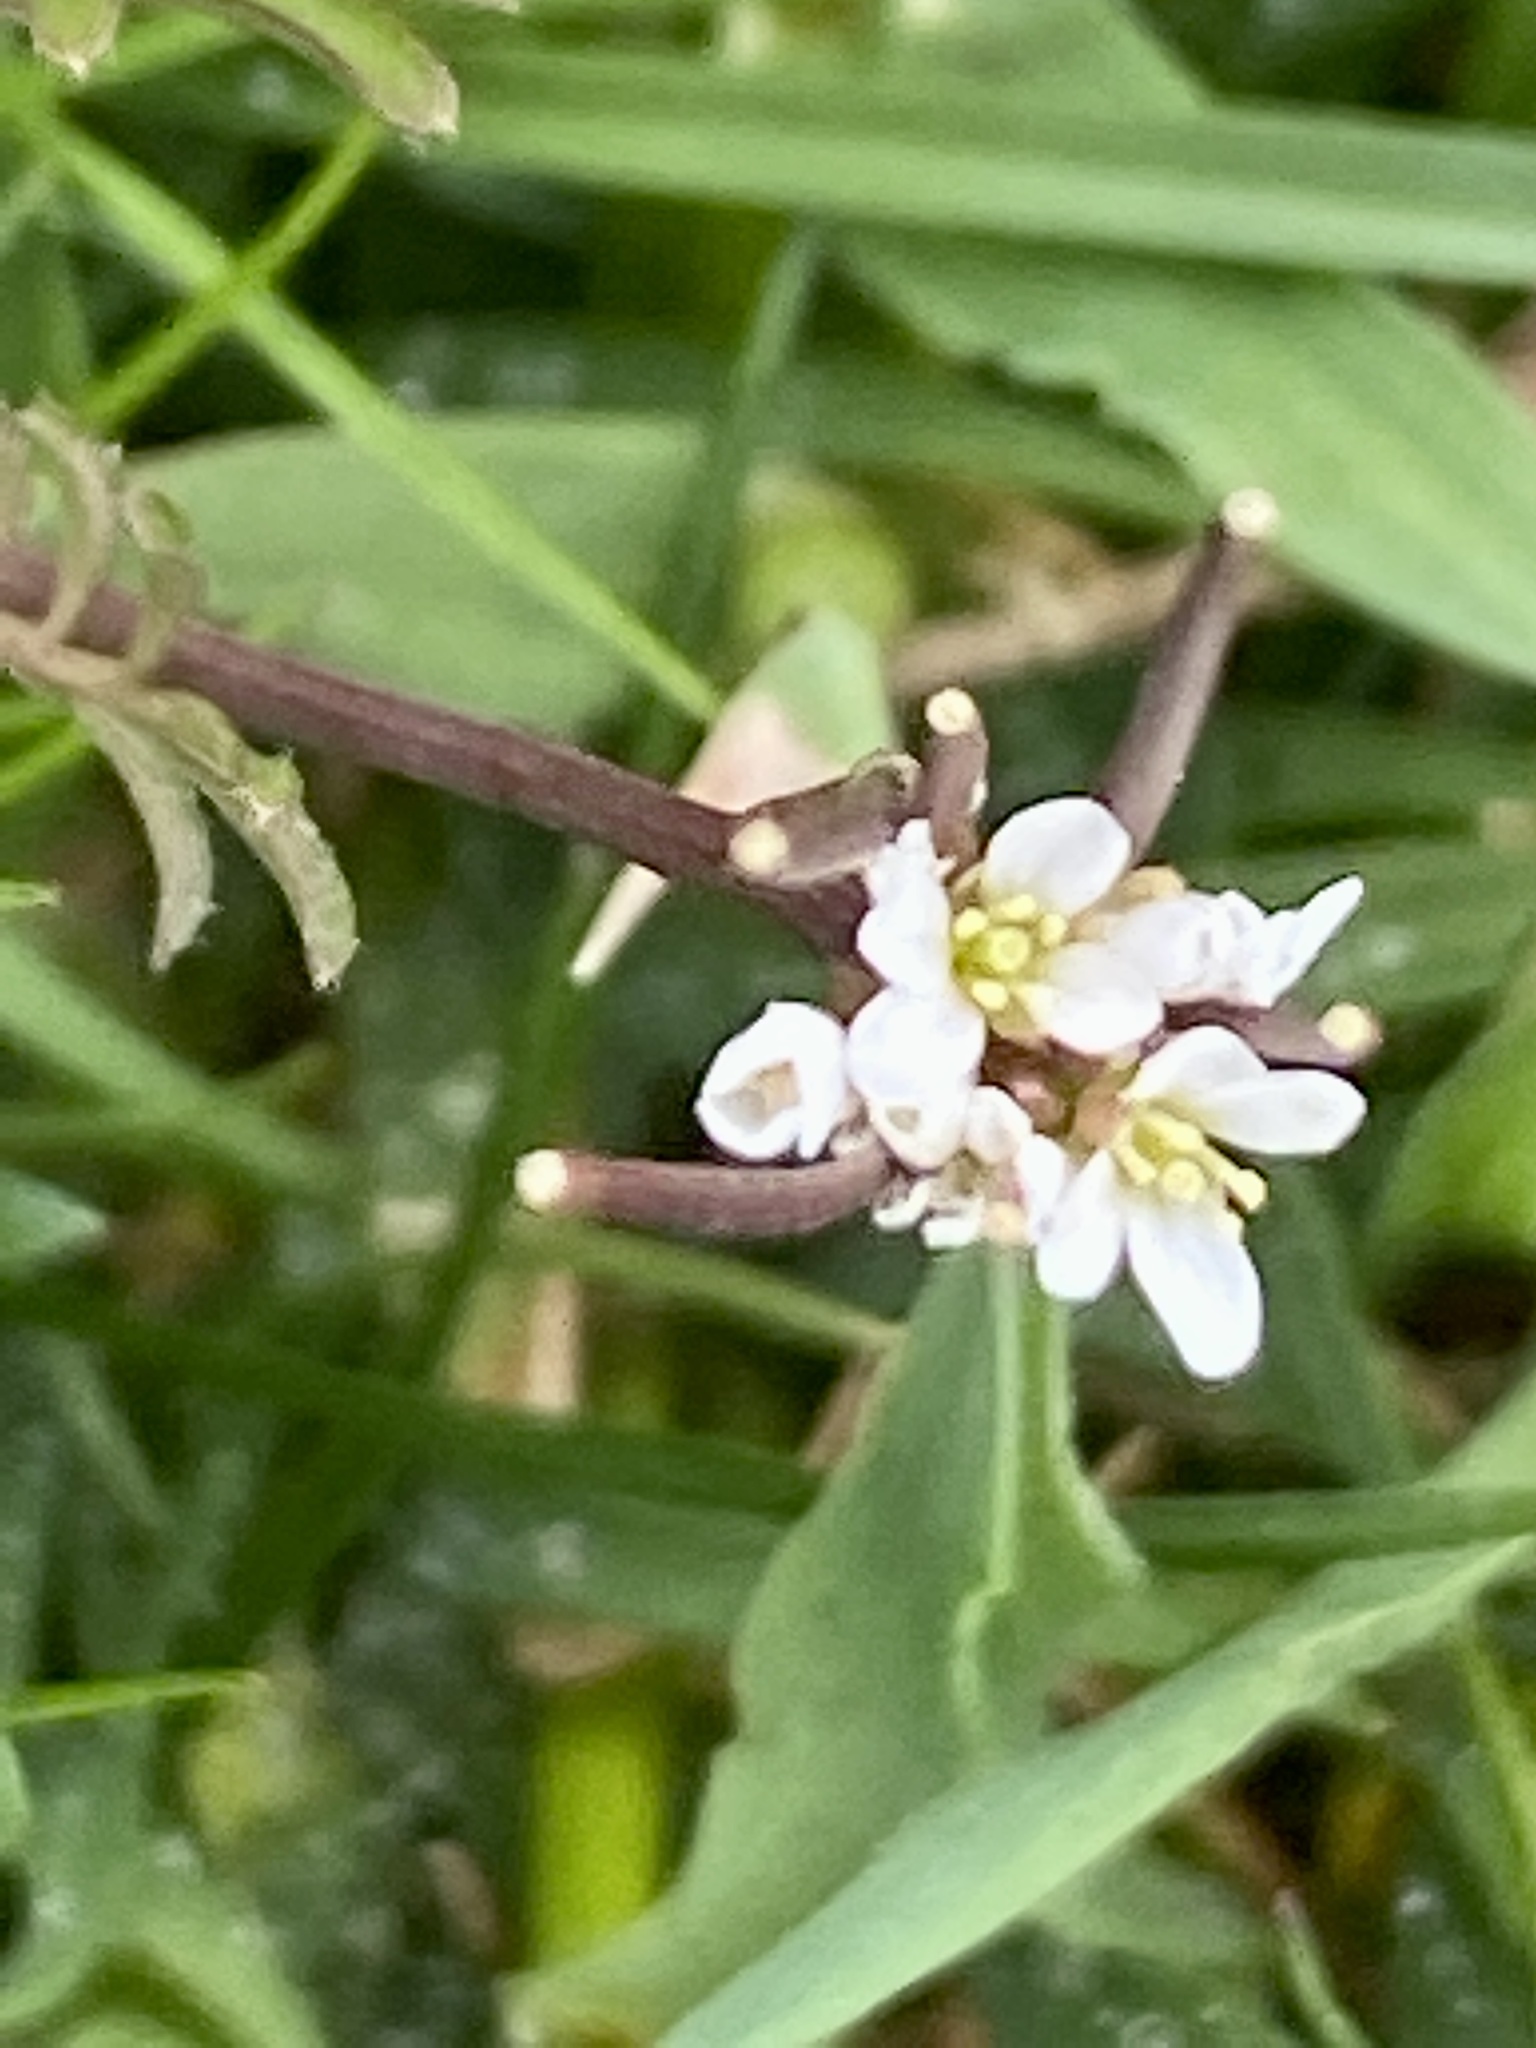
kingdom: Plantae
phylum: Tracheophyta
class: Magnoliopsida
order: Brassicales
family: Brassicaceae
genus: Cardamine
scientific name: Cardamine hirsuta
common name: Hairy bittercress
